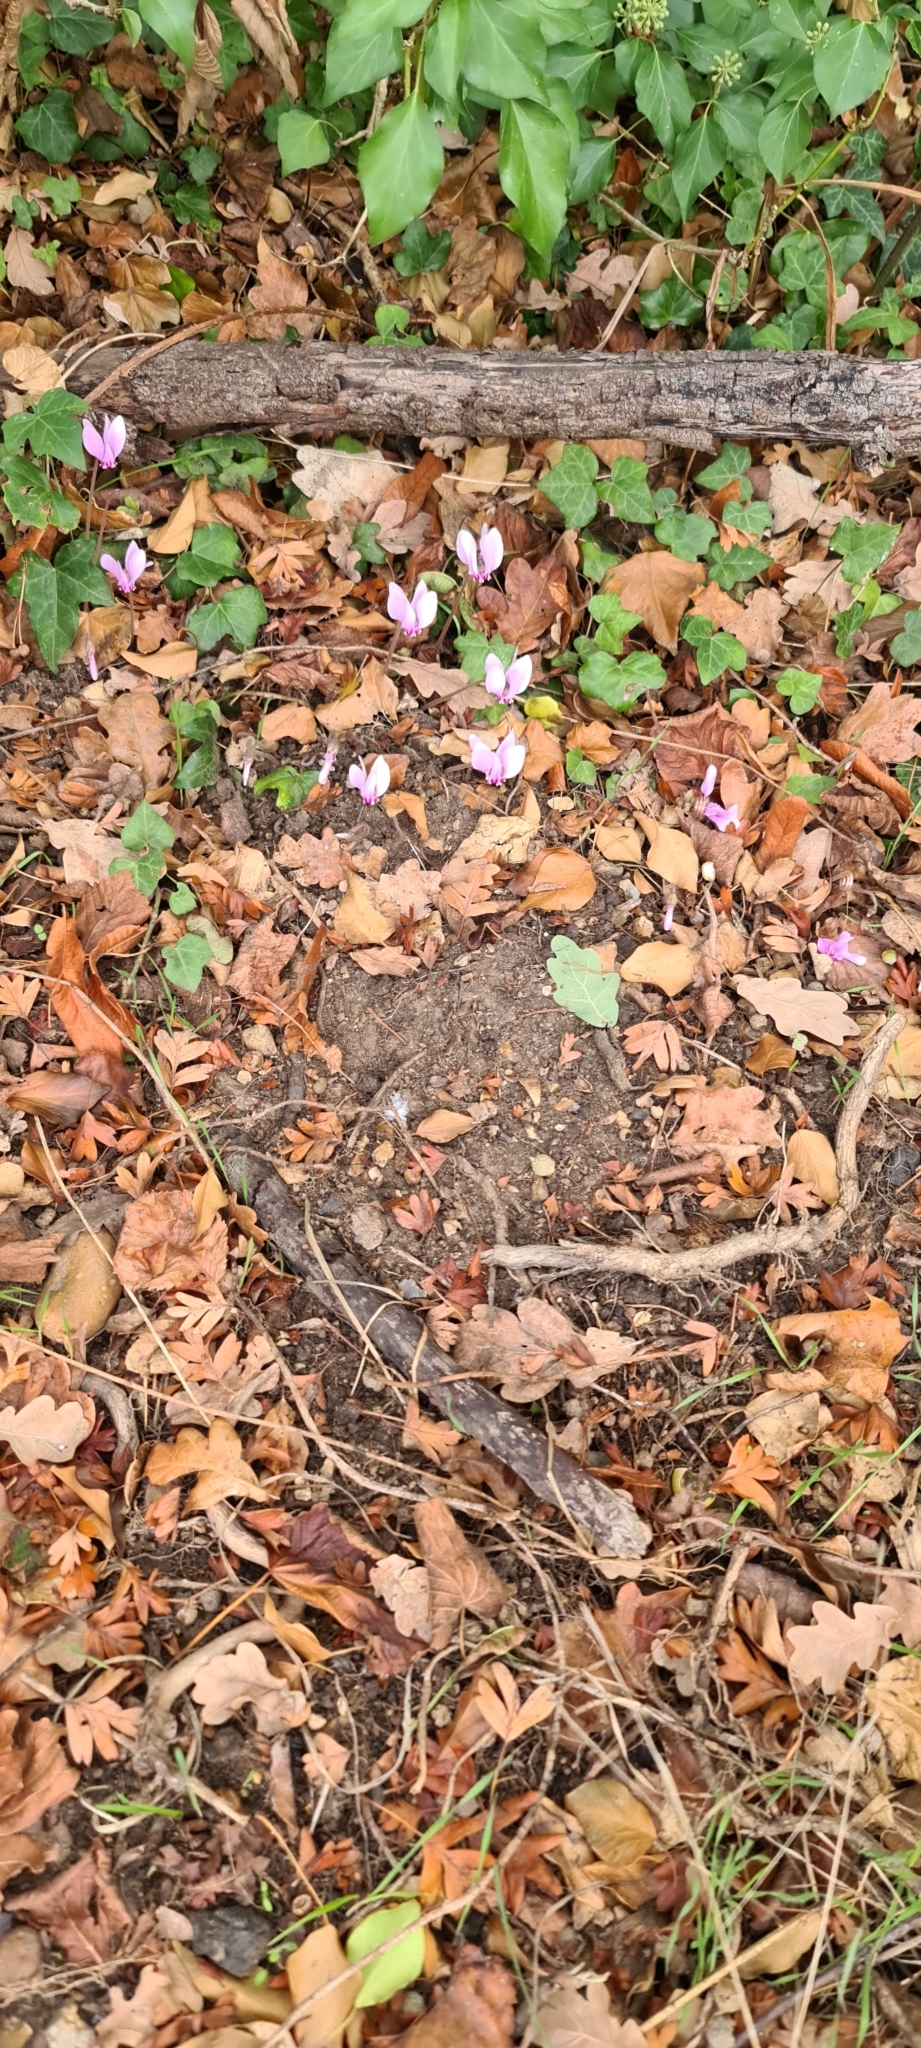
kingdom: Plantae
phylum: Tracheophyta
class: Magnoliopsida
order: Ericales
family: Primulaceae
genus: Cyclamen
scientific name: Cyclamen hederifolium
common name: Sowbread
